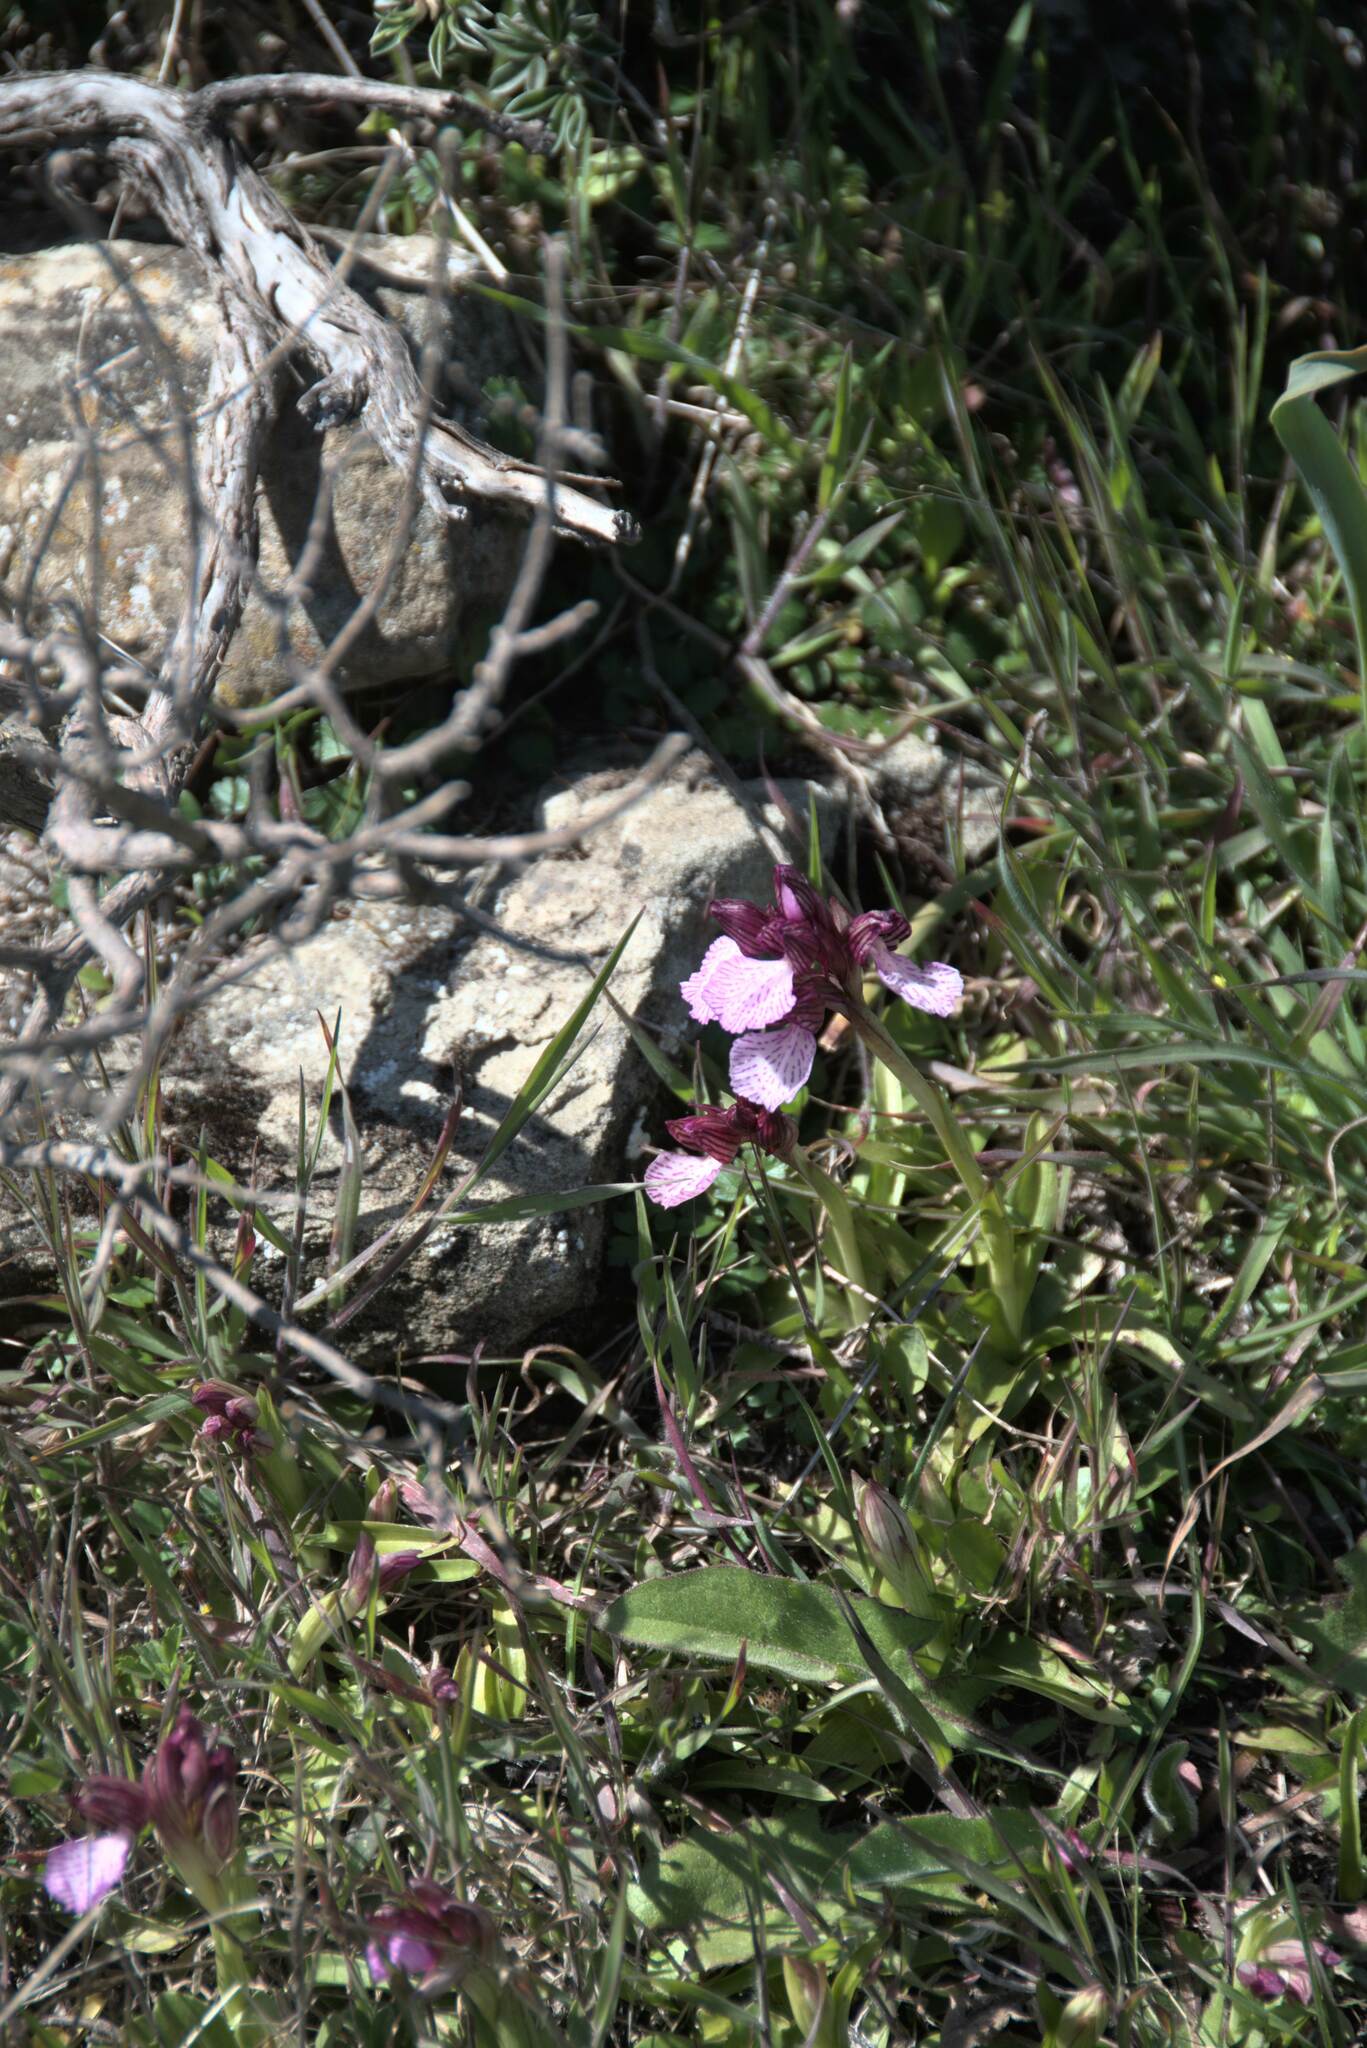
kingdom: Plantae
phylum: Tracheophyta
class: Liliopsida
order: Asparagales
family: Orchidaceae
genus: Anacamptis
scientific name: Anacamptis papilionacea
